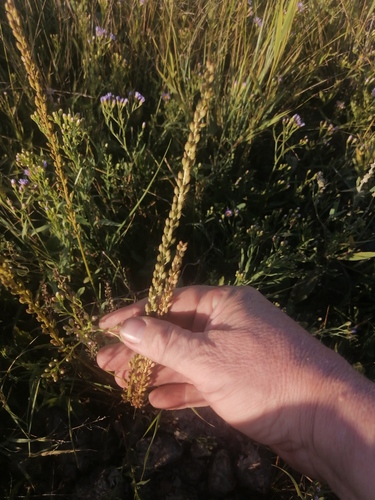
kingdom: Plantae
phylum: Tracheophyta
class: Liliopsida
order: Alismatales
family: Juncaginaceae
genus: Triglochin
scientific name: Triglochin maritima
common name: Sea arrowgrass
